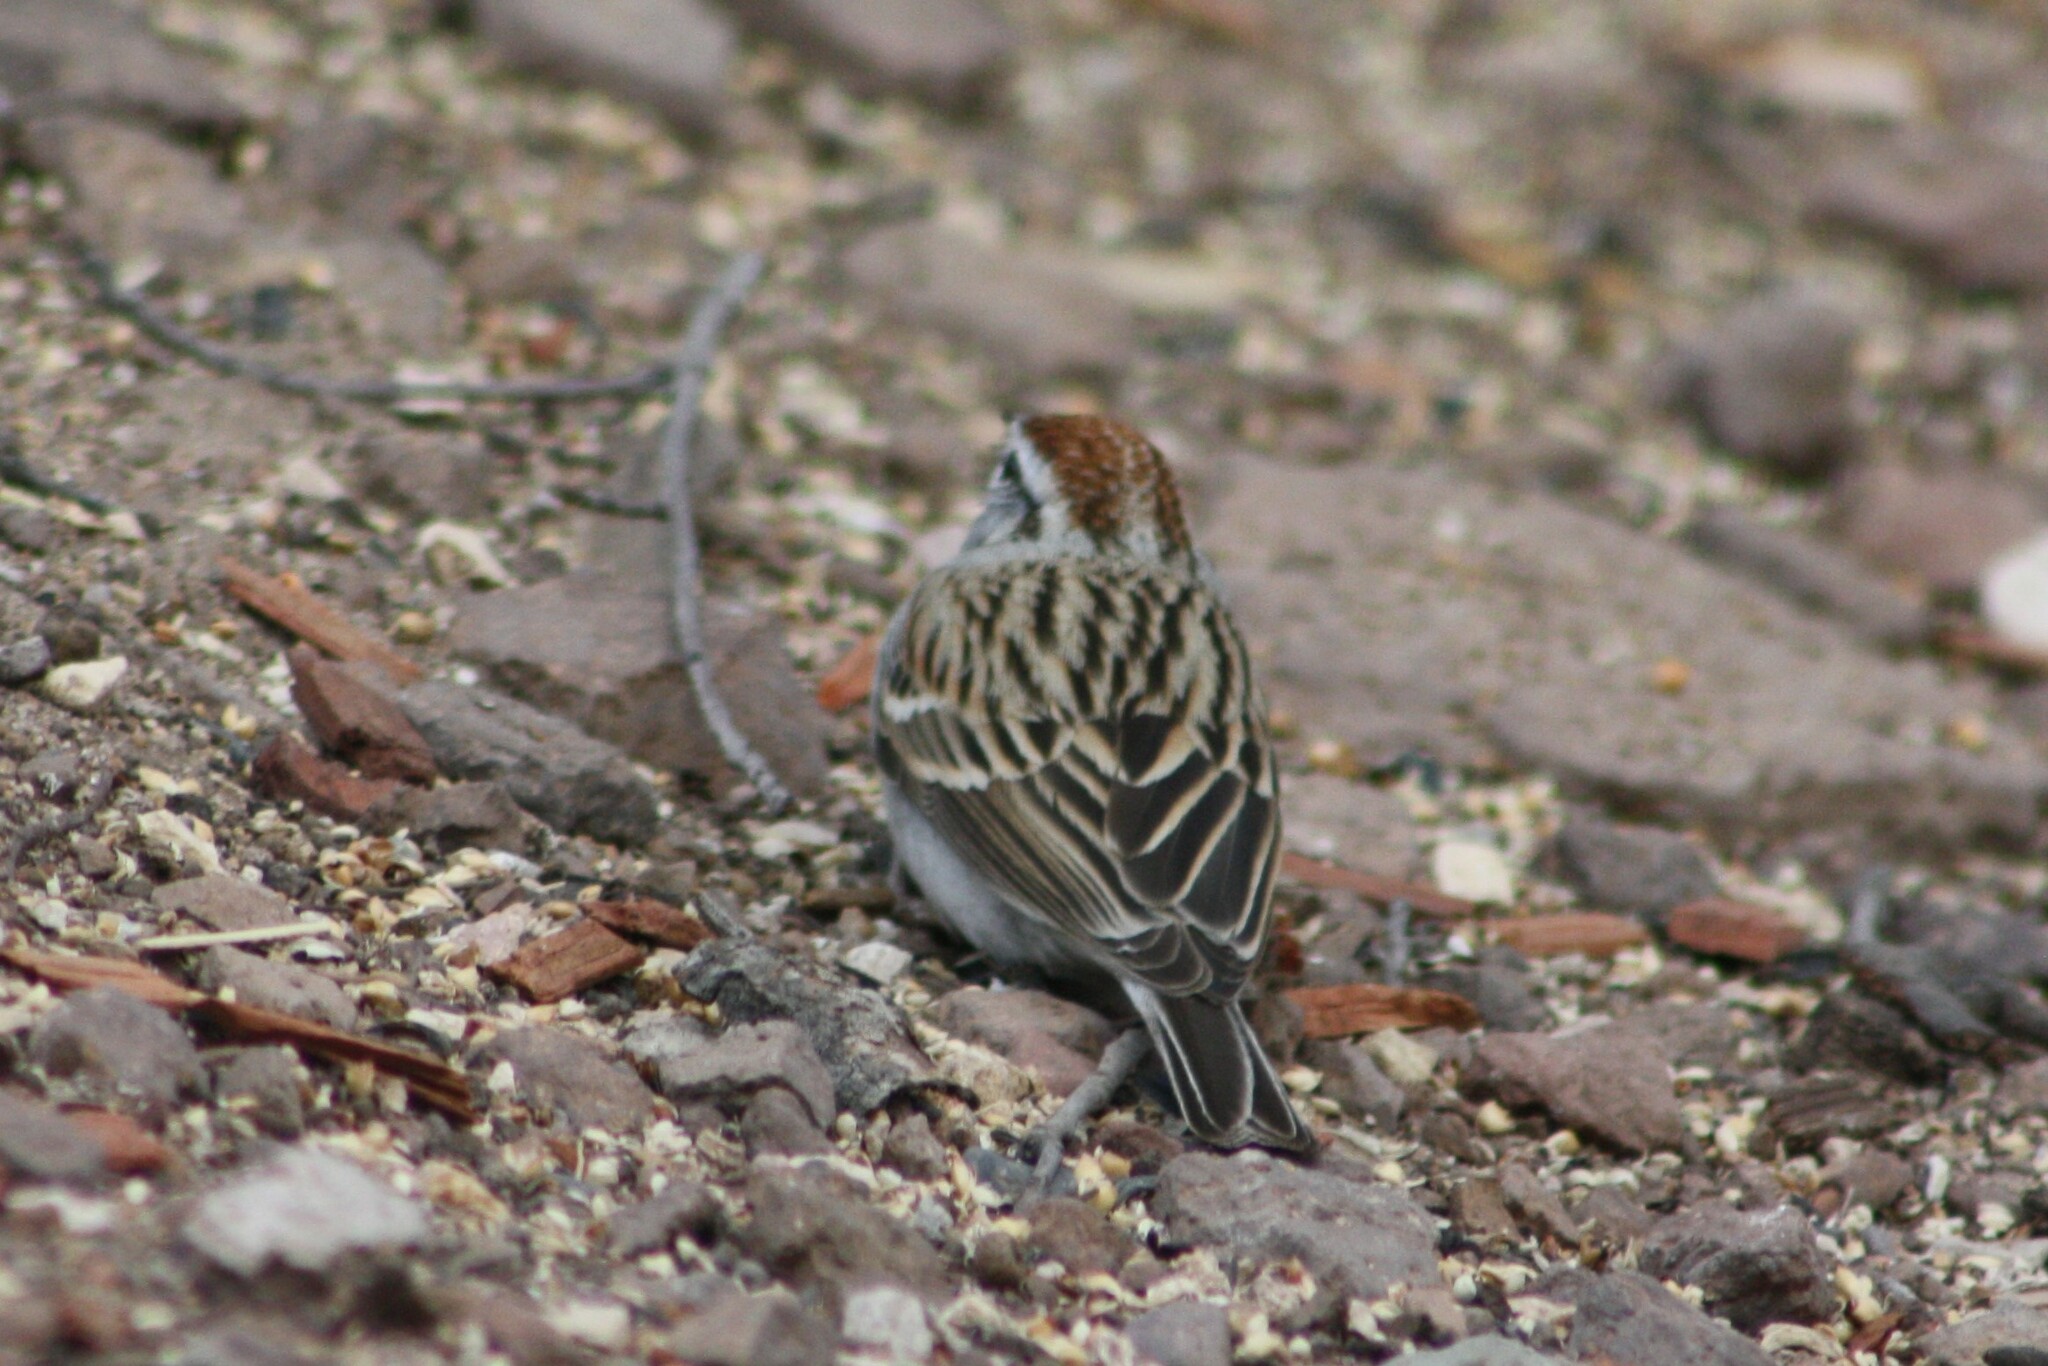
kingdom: Animalia
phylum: Chordata
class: Aves
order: Passeriformes
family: Passerellidae
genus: Spizella
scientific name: Spizella passerina
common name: Chipping sparrow
